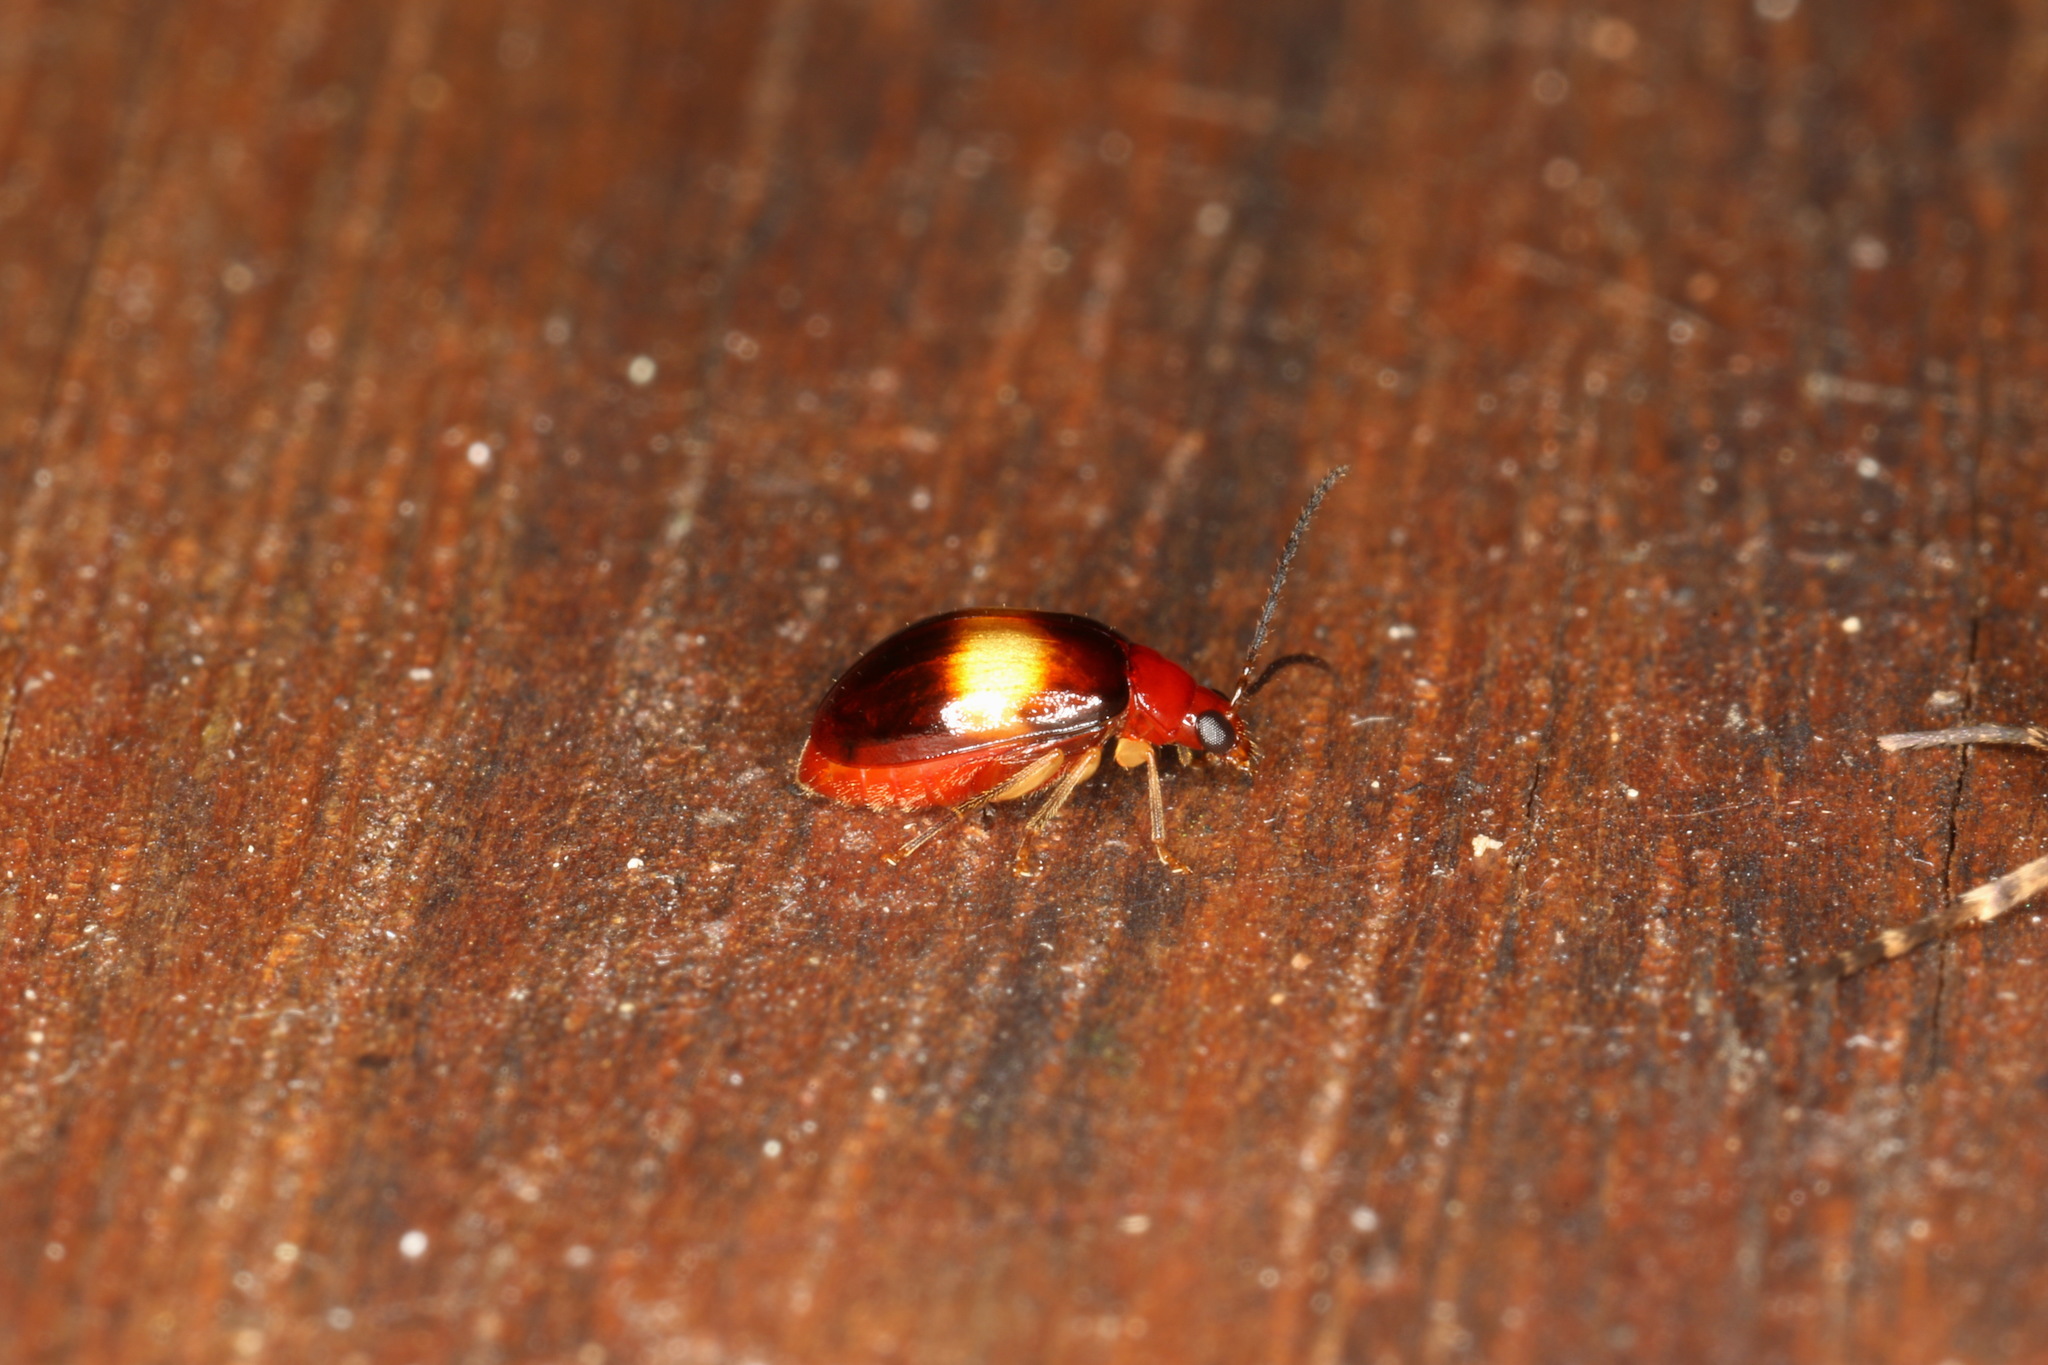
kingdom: Animalia
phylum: Arthropoda
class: Insecta
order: Coleoptera
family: Chrysomelidae
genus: Candezea
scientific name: Candezea
